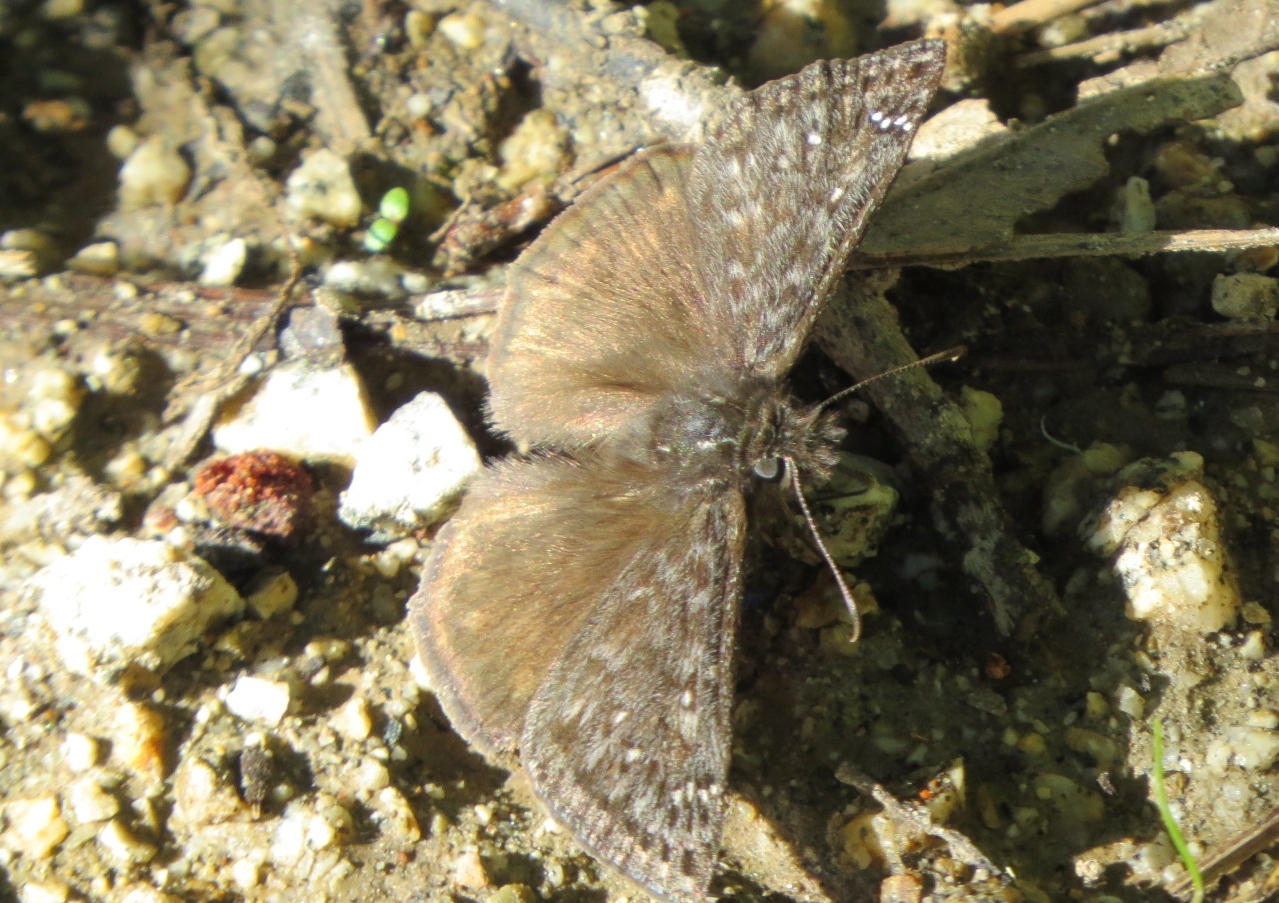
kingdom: Animalia
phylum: Arthropoda
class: Insecta
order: Lepidoptera
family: Hesperiidae
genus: Erynnis
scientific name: Erynnis propertius
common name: Propertius duskywing
